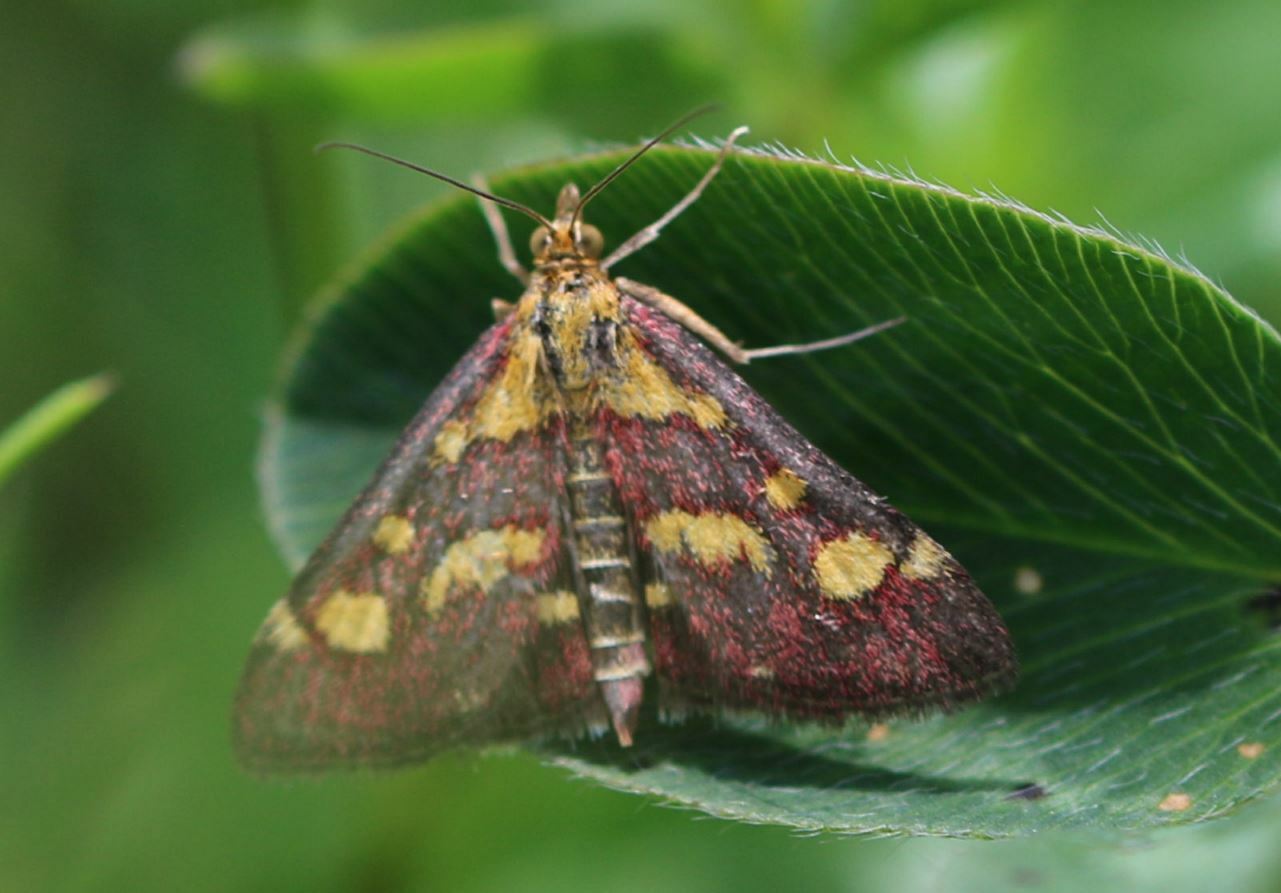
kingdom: Animalia
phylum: Arthropoda
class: Insecta
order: Lepidoptera
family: Crambidae
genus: Pyrausta
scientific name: Pyrausta purpuralis
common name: Common purple & gold
